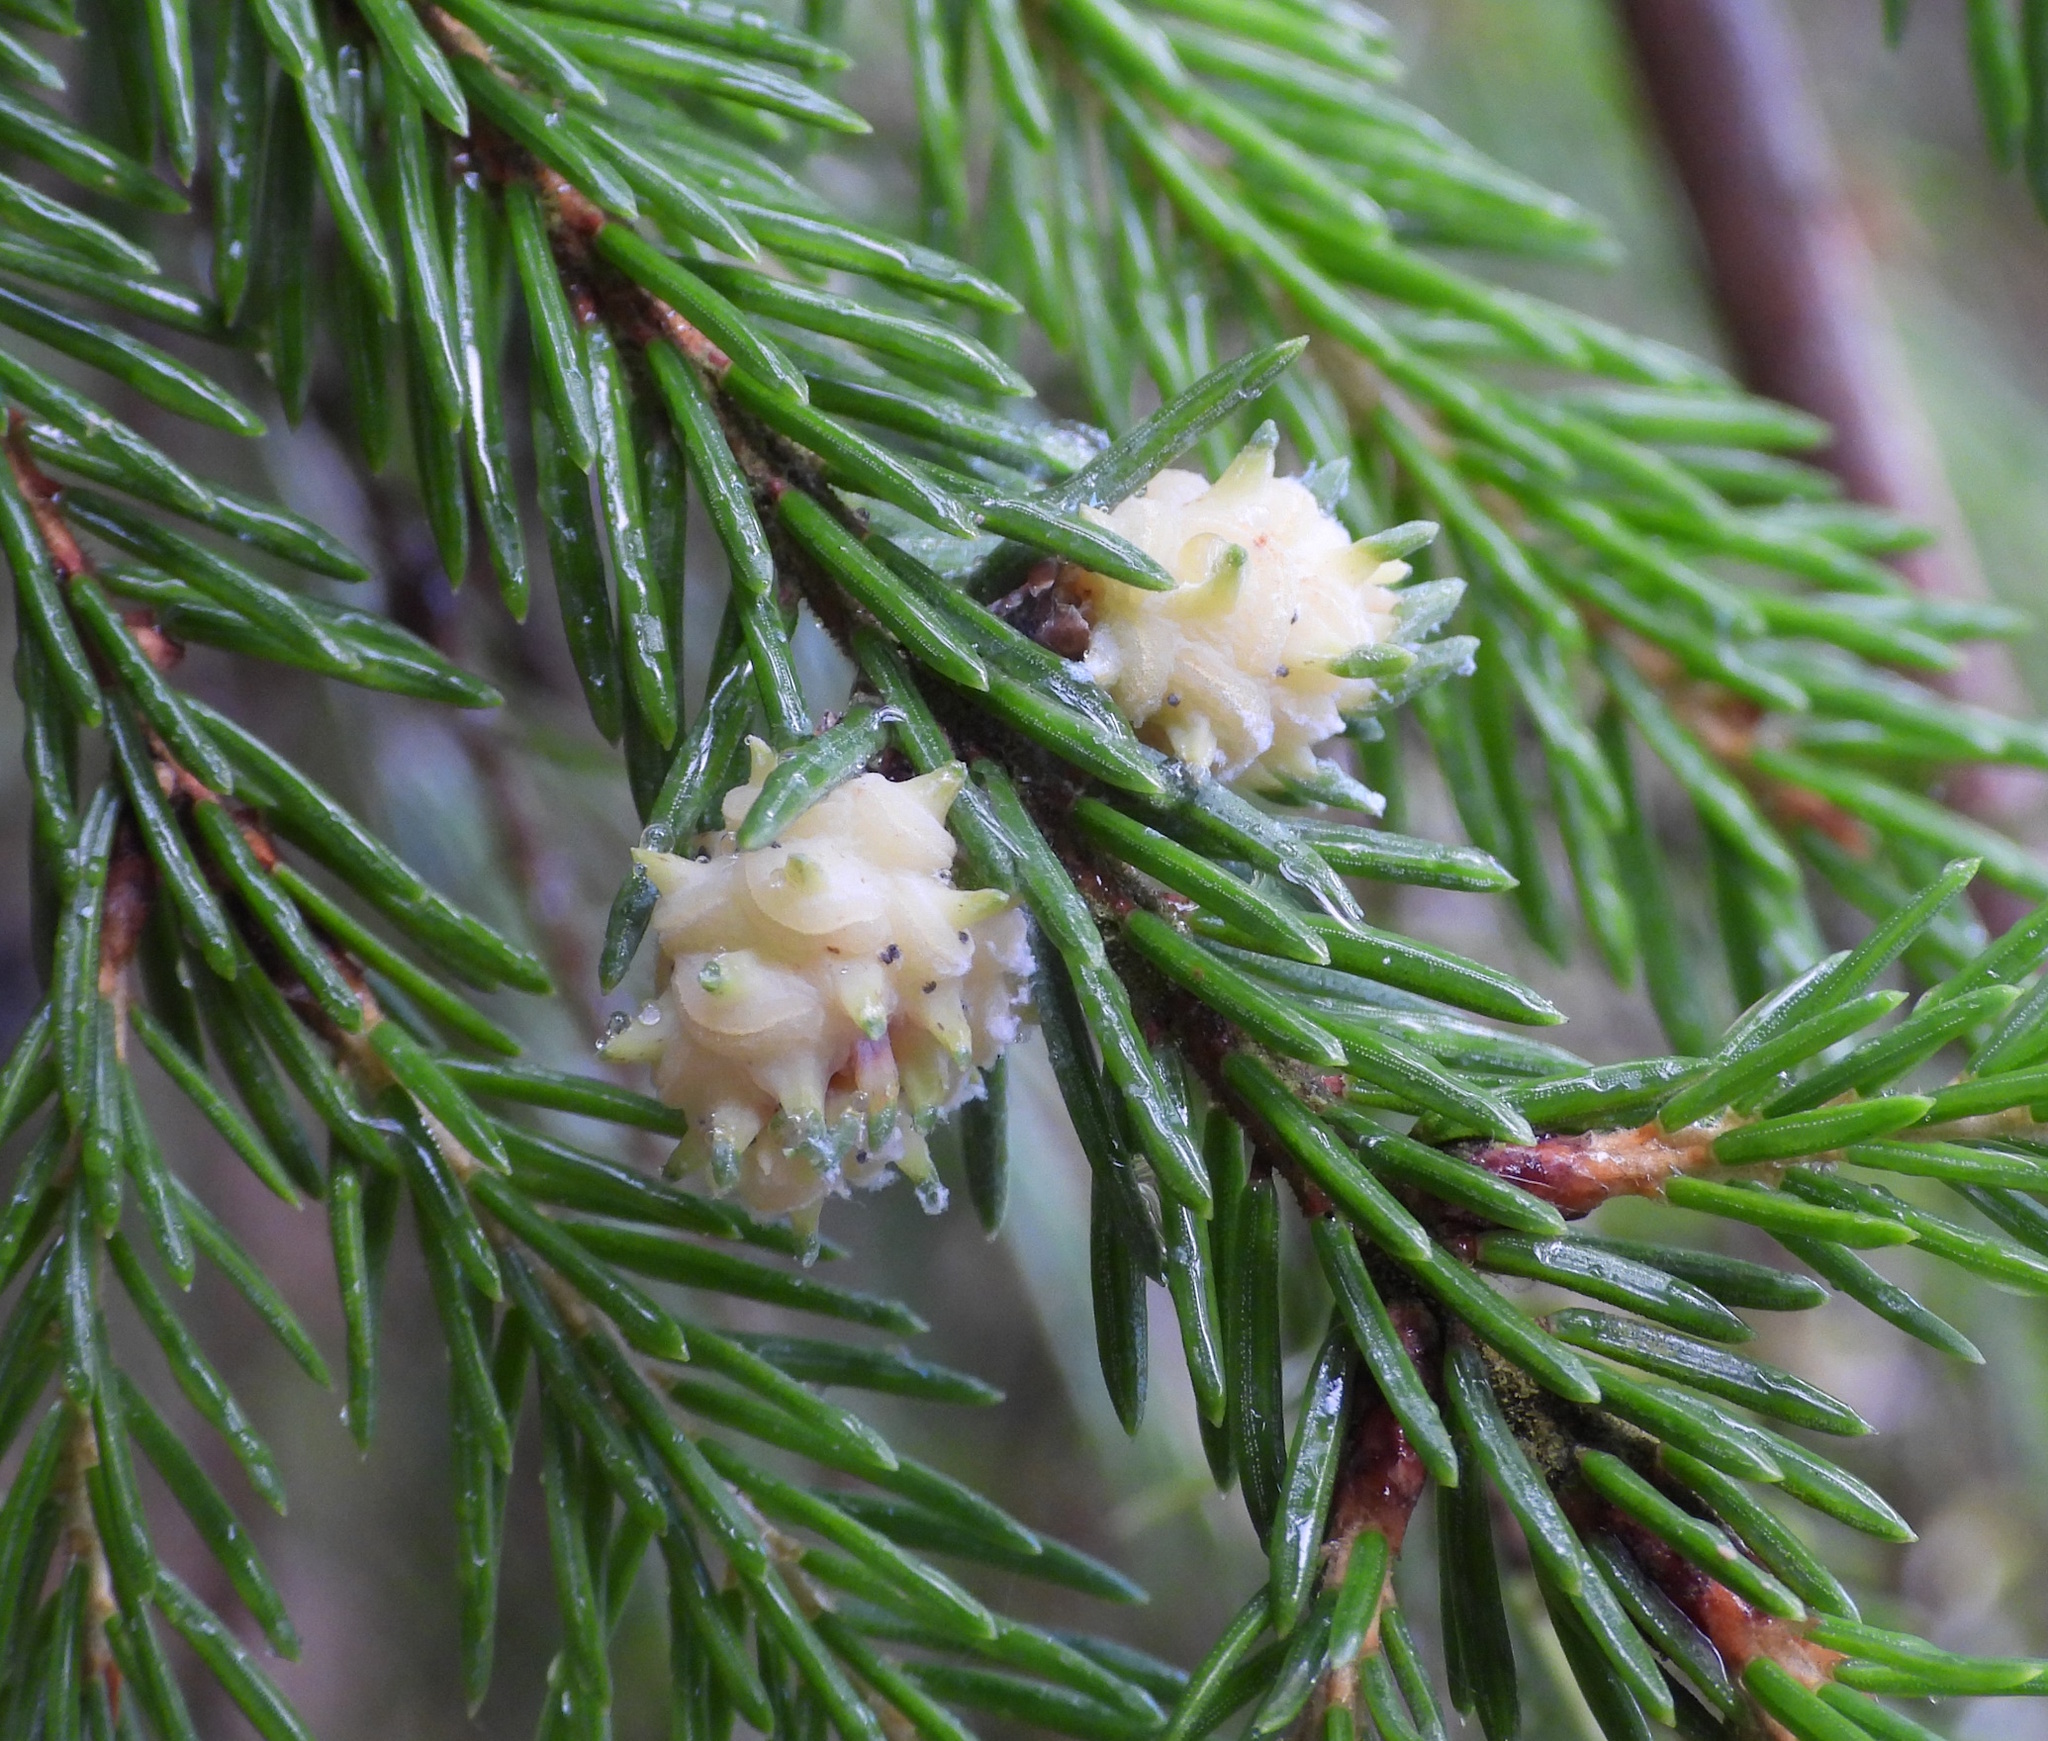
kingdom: Animalia
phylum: Arthropoda
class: Insecta
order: Hemiptera
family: Adelgidae
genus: Adelges
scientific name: Adelges laricis
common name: Pale spruce gall adelgid
